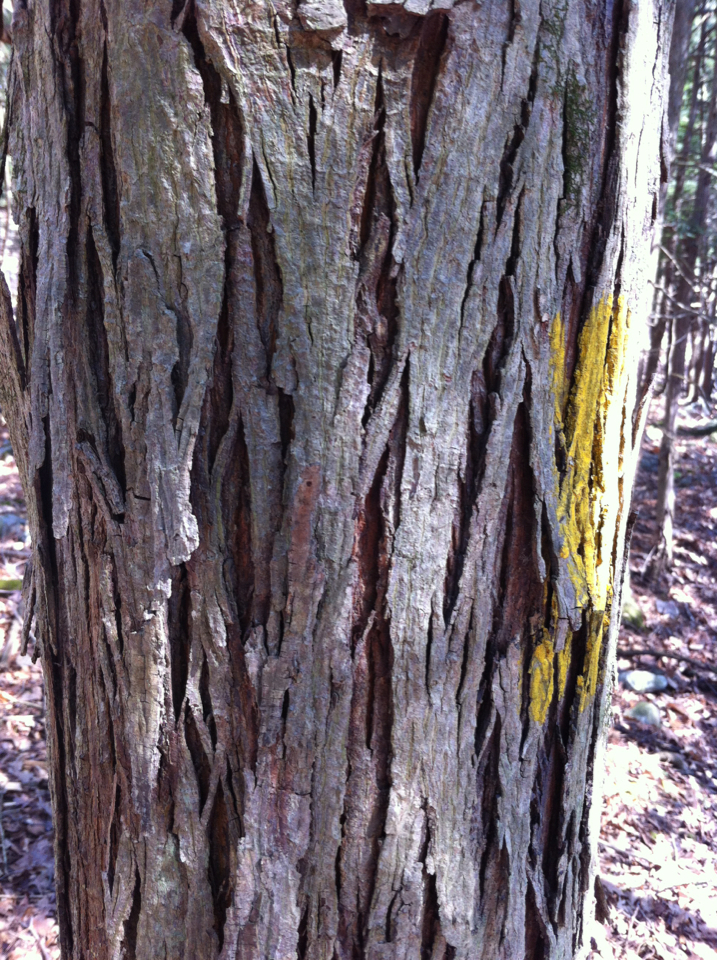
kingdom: Plantae
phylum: Tracheophyta
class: Magnoliopsida
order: Fagales
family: Juglandaceae
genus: Carya
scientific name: Carya ovata
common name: Shagbark hickory
